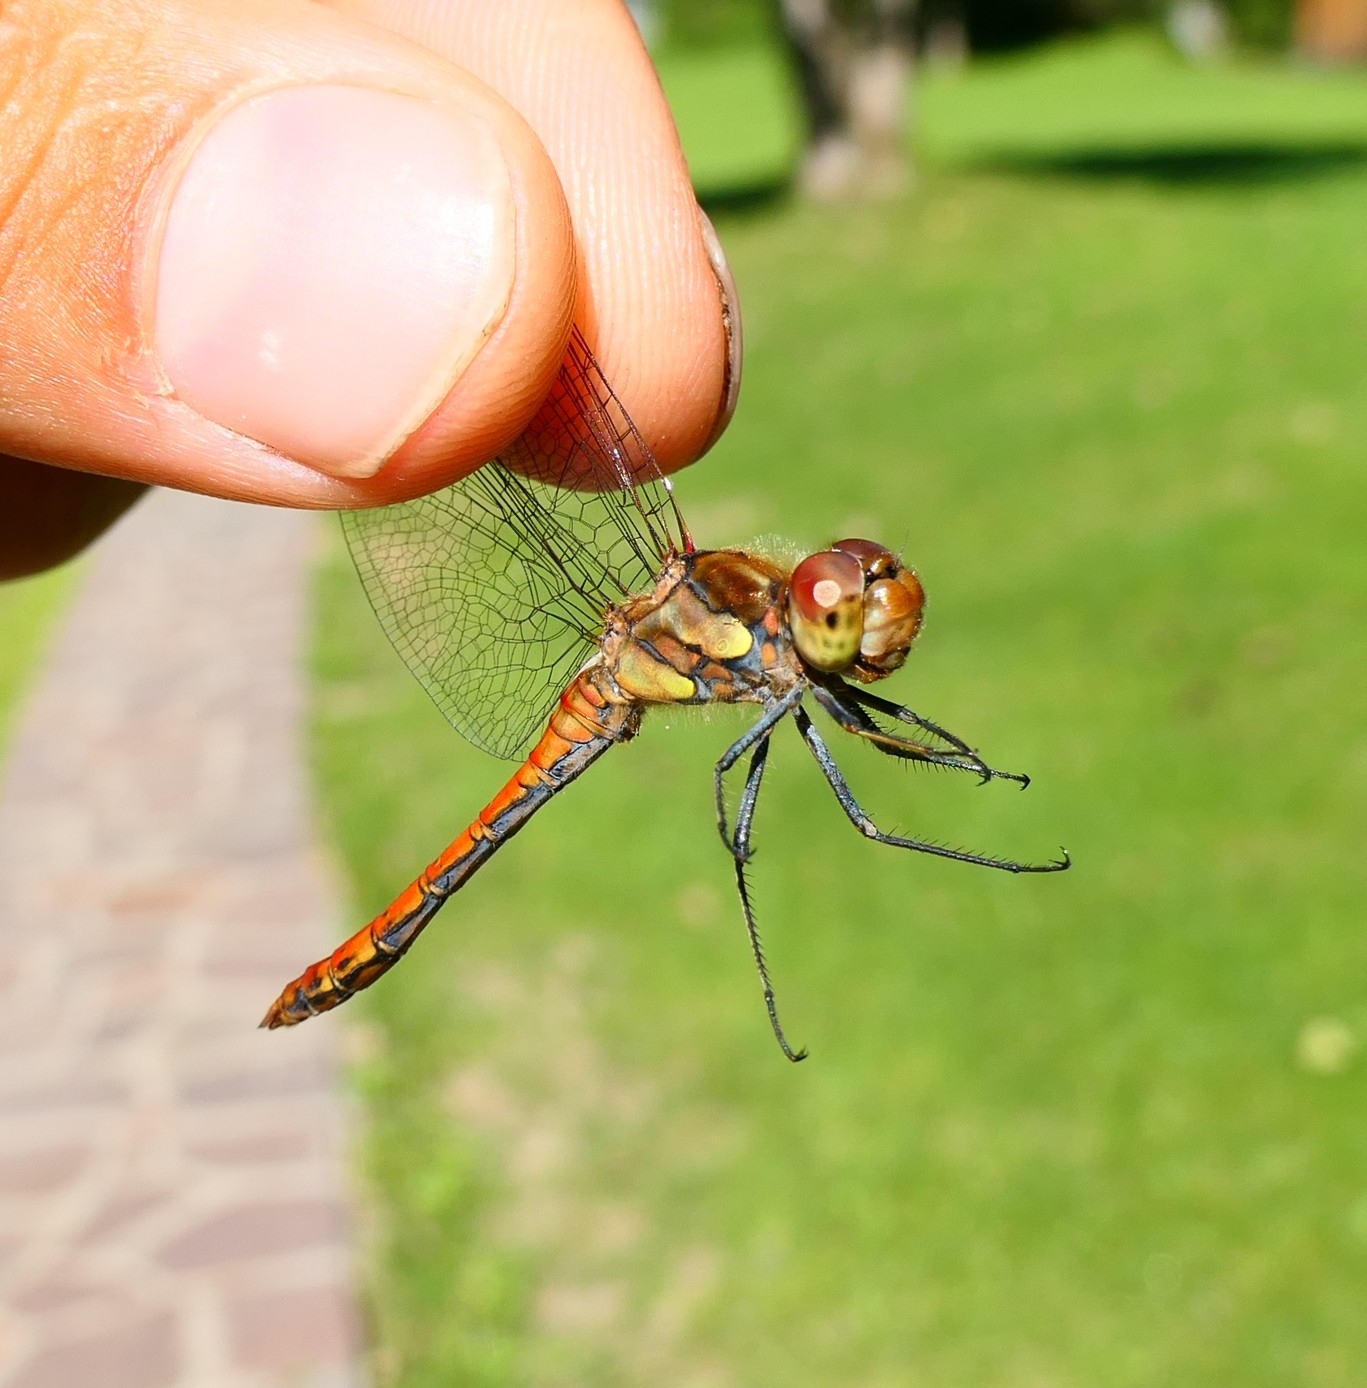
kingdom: Animalia
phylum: Arthropoda
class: Insecta
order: Odonata
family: Libellulidae
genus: Sympetrum
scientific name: Sympetrum striolatum
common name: Common darter
